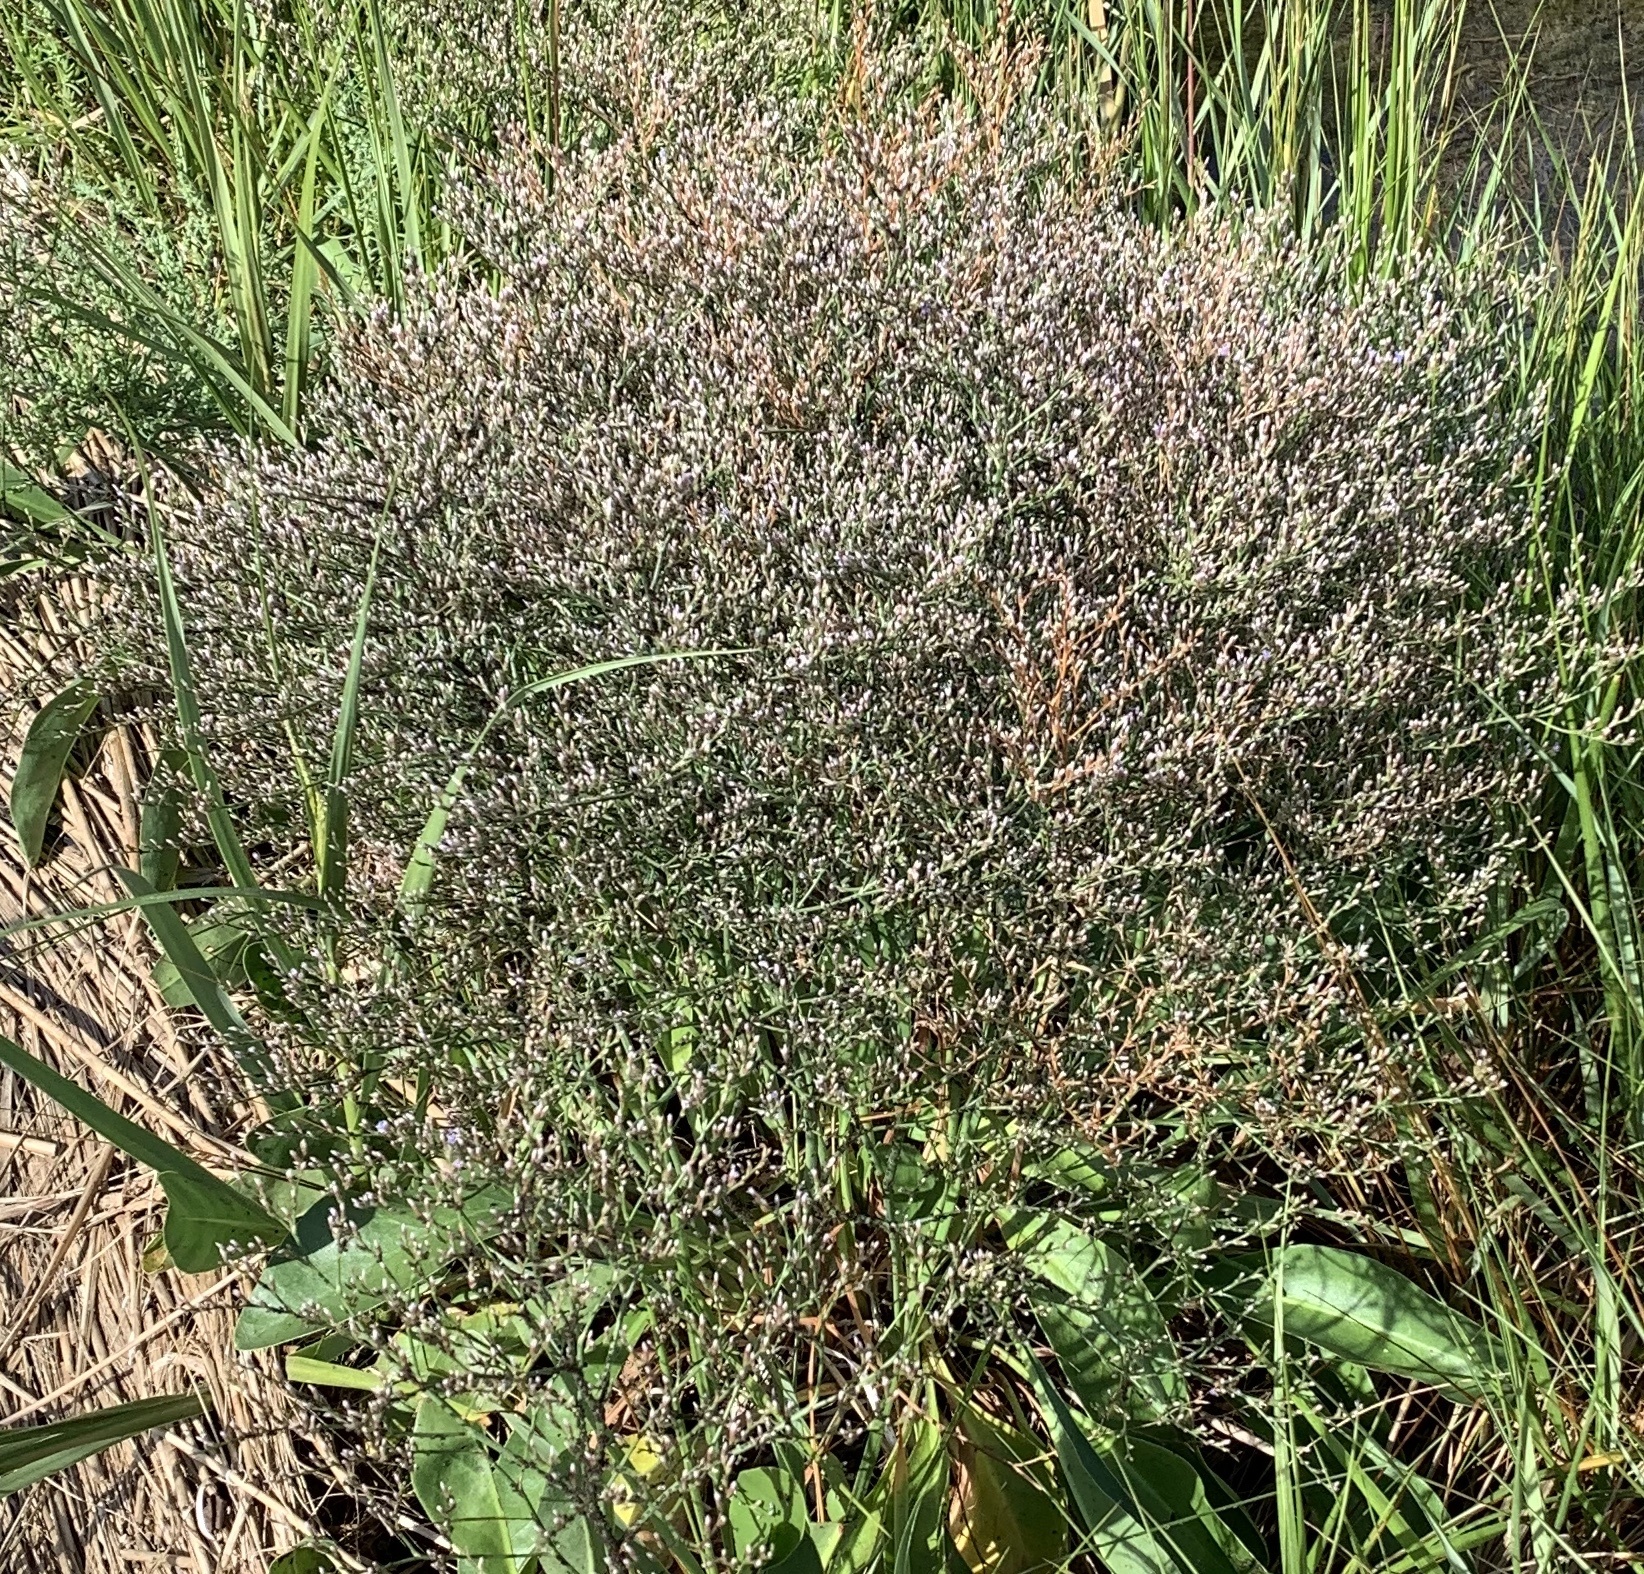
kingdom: Plantae
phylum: Tracheophyta
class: Magnoliopsida
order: Caryophyllales
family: Plumbaginaceae
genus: Limonium
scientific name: Limonium carolinianum
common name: Carolina sea lavender
